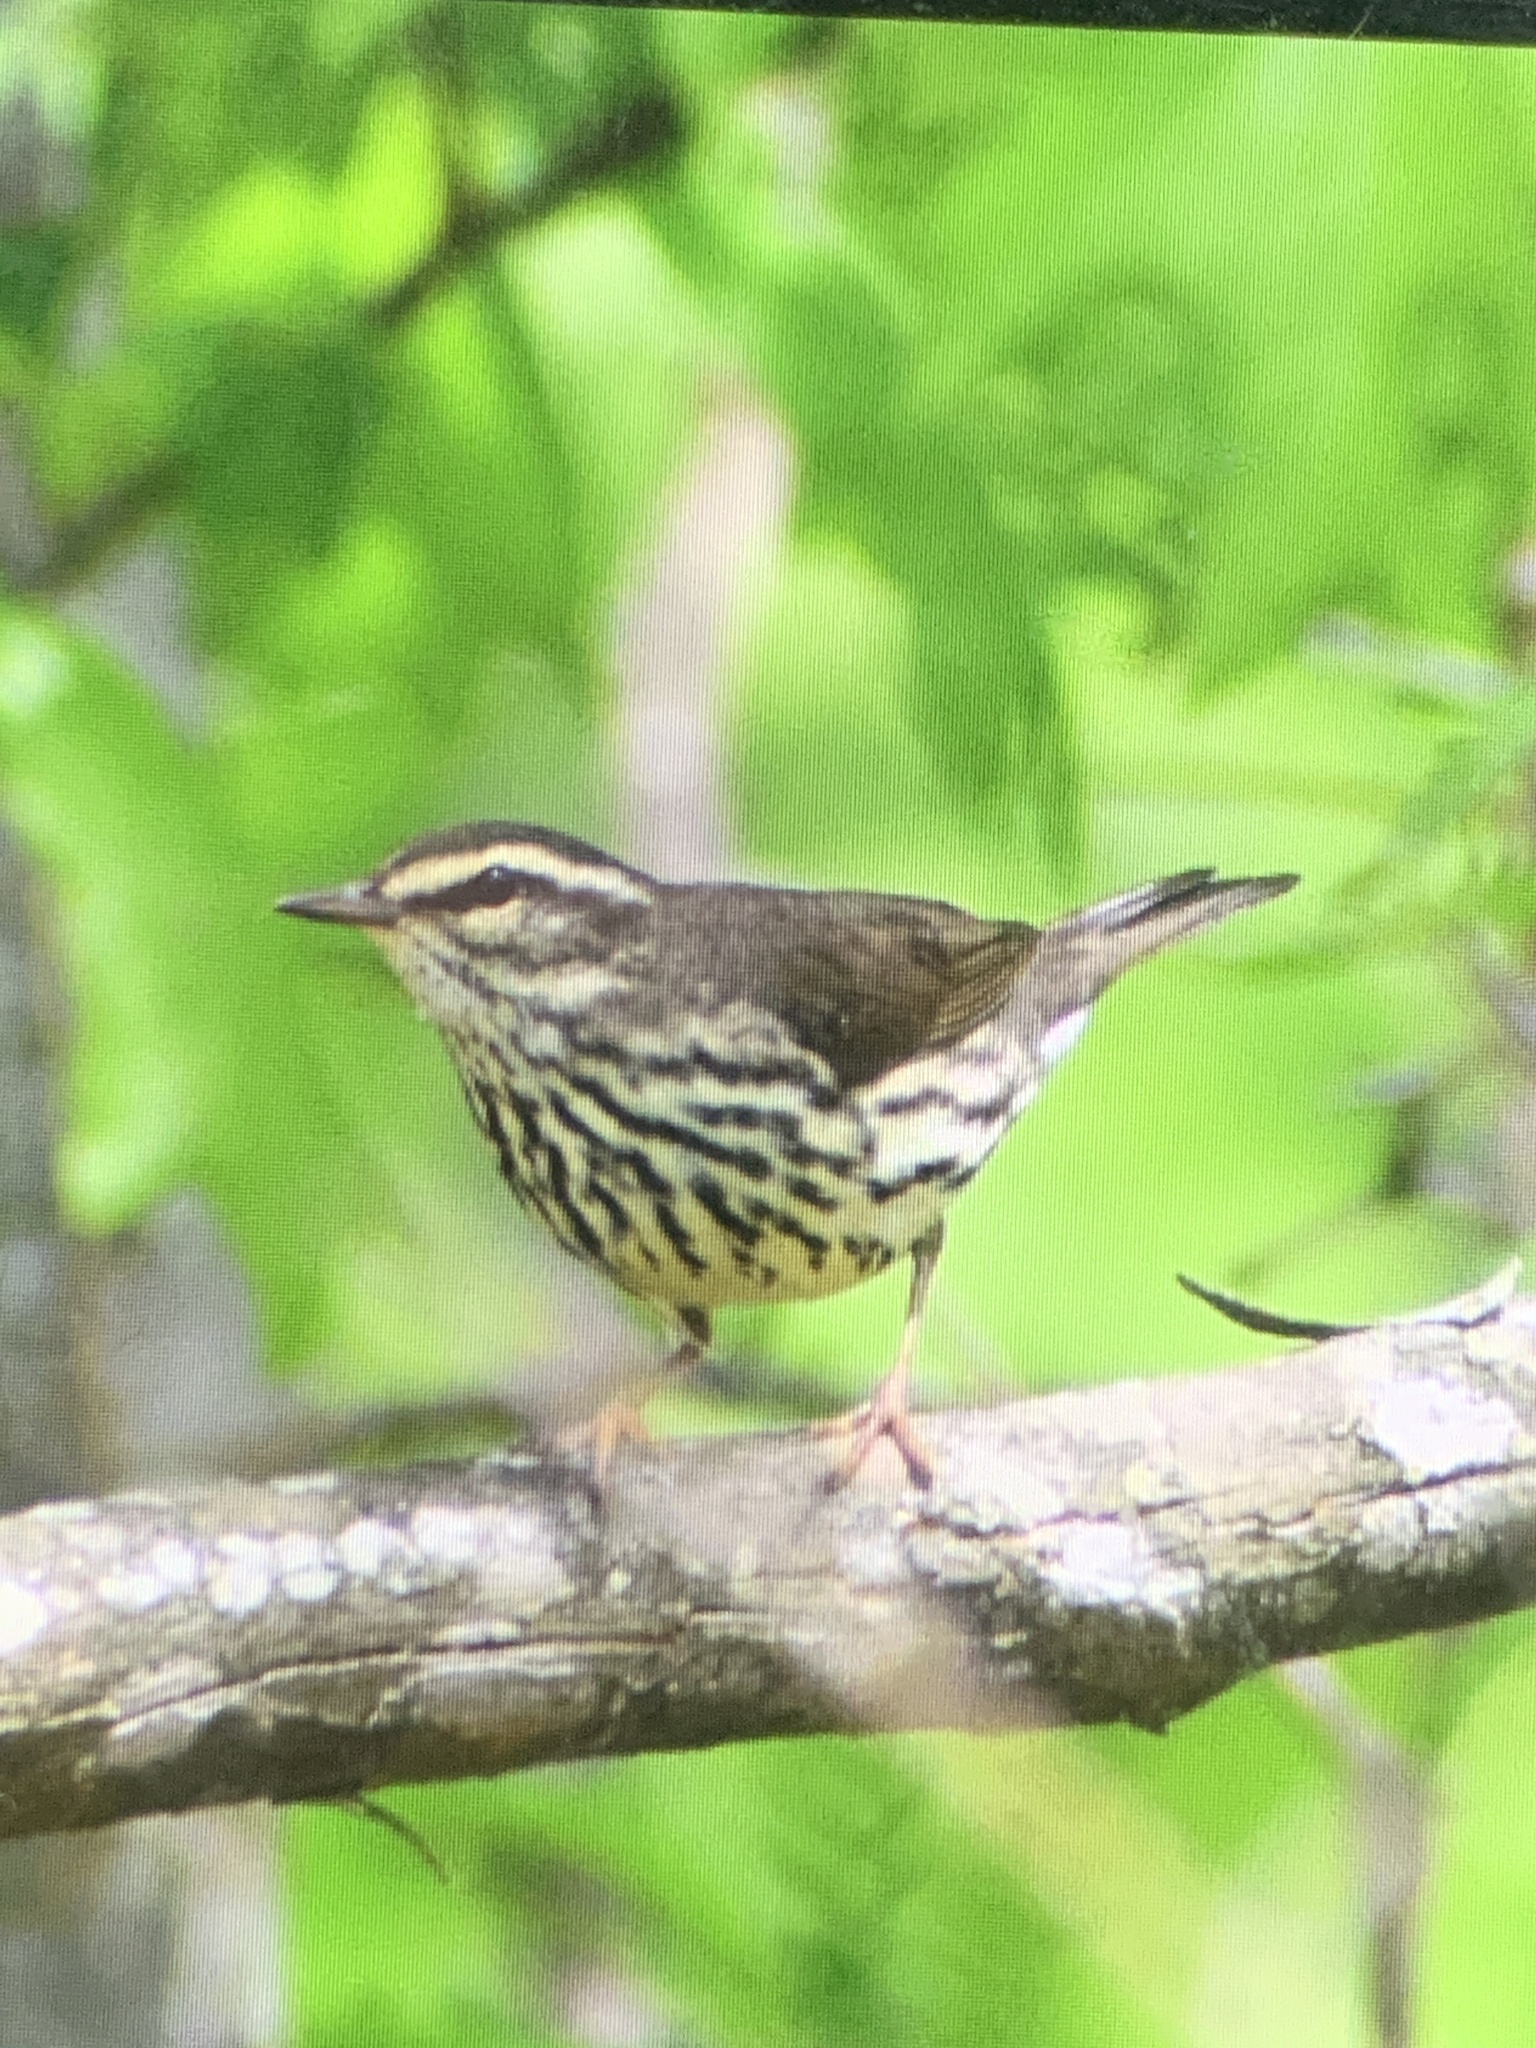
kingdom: Animalia
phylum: Chordata
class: Aves
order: Passeriformes
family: Parulidae
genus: Parkesia
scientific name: Parkesia noveboracensis
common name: Northern waterthrush
